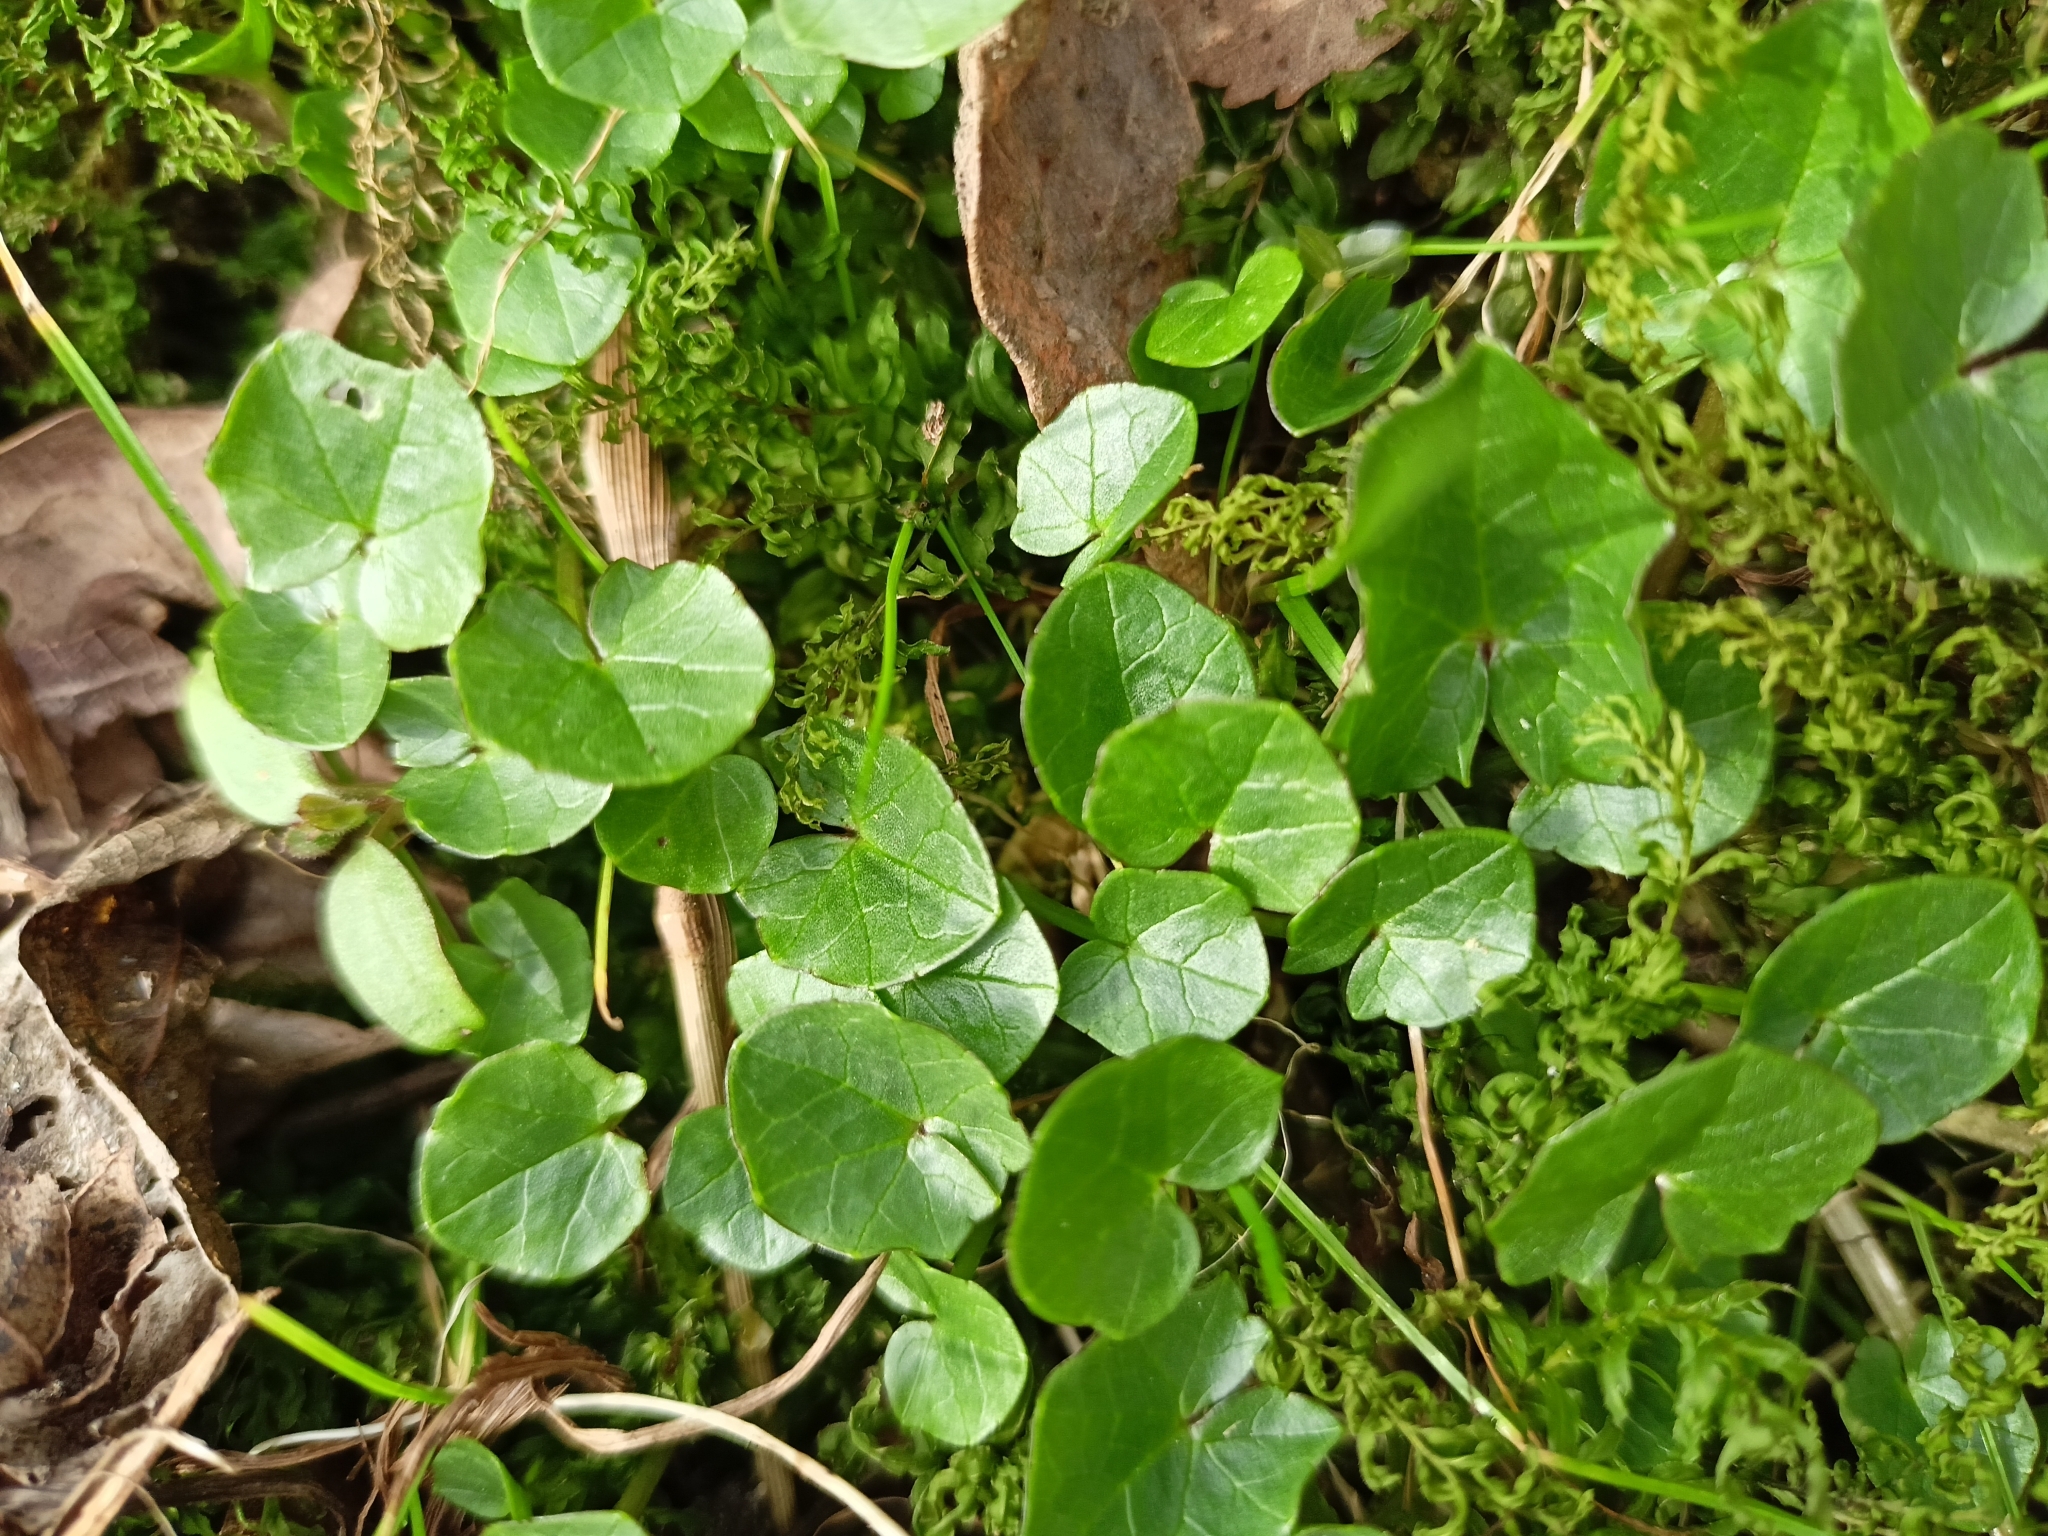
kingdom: Plantae
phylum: Tracheophyta
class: Magnoliopsida
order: Ranunculales
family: Ranunculaceae
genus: Ficaria
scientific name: Ficaria verna
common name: Lesser celandine
